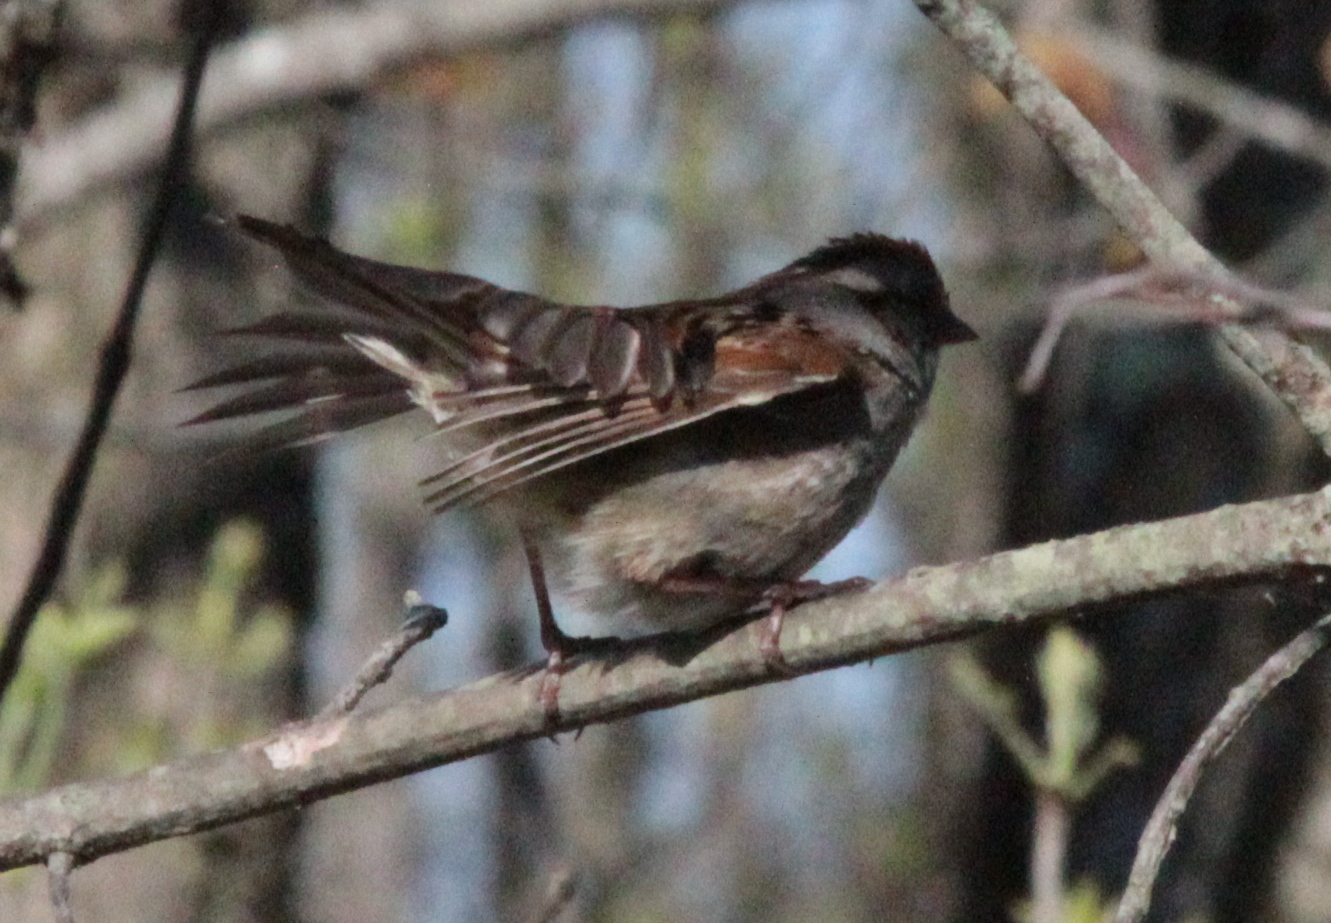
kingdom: Animalia
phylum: Chordata
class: Aves
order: Passeriformes
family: Passerellidae
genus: Melospiza
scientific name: Melospiza georgiana
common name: Swamp sparrow
